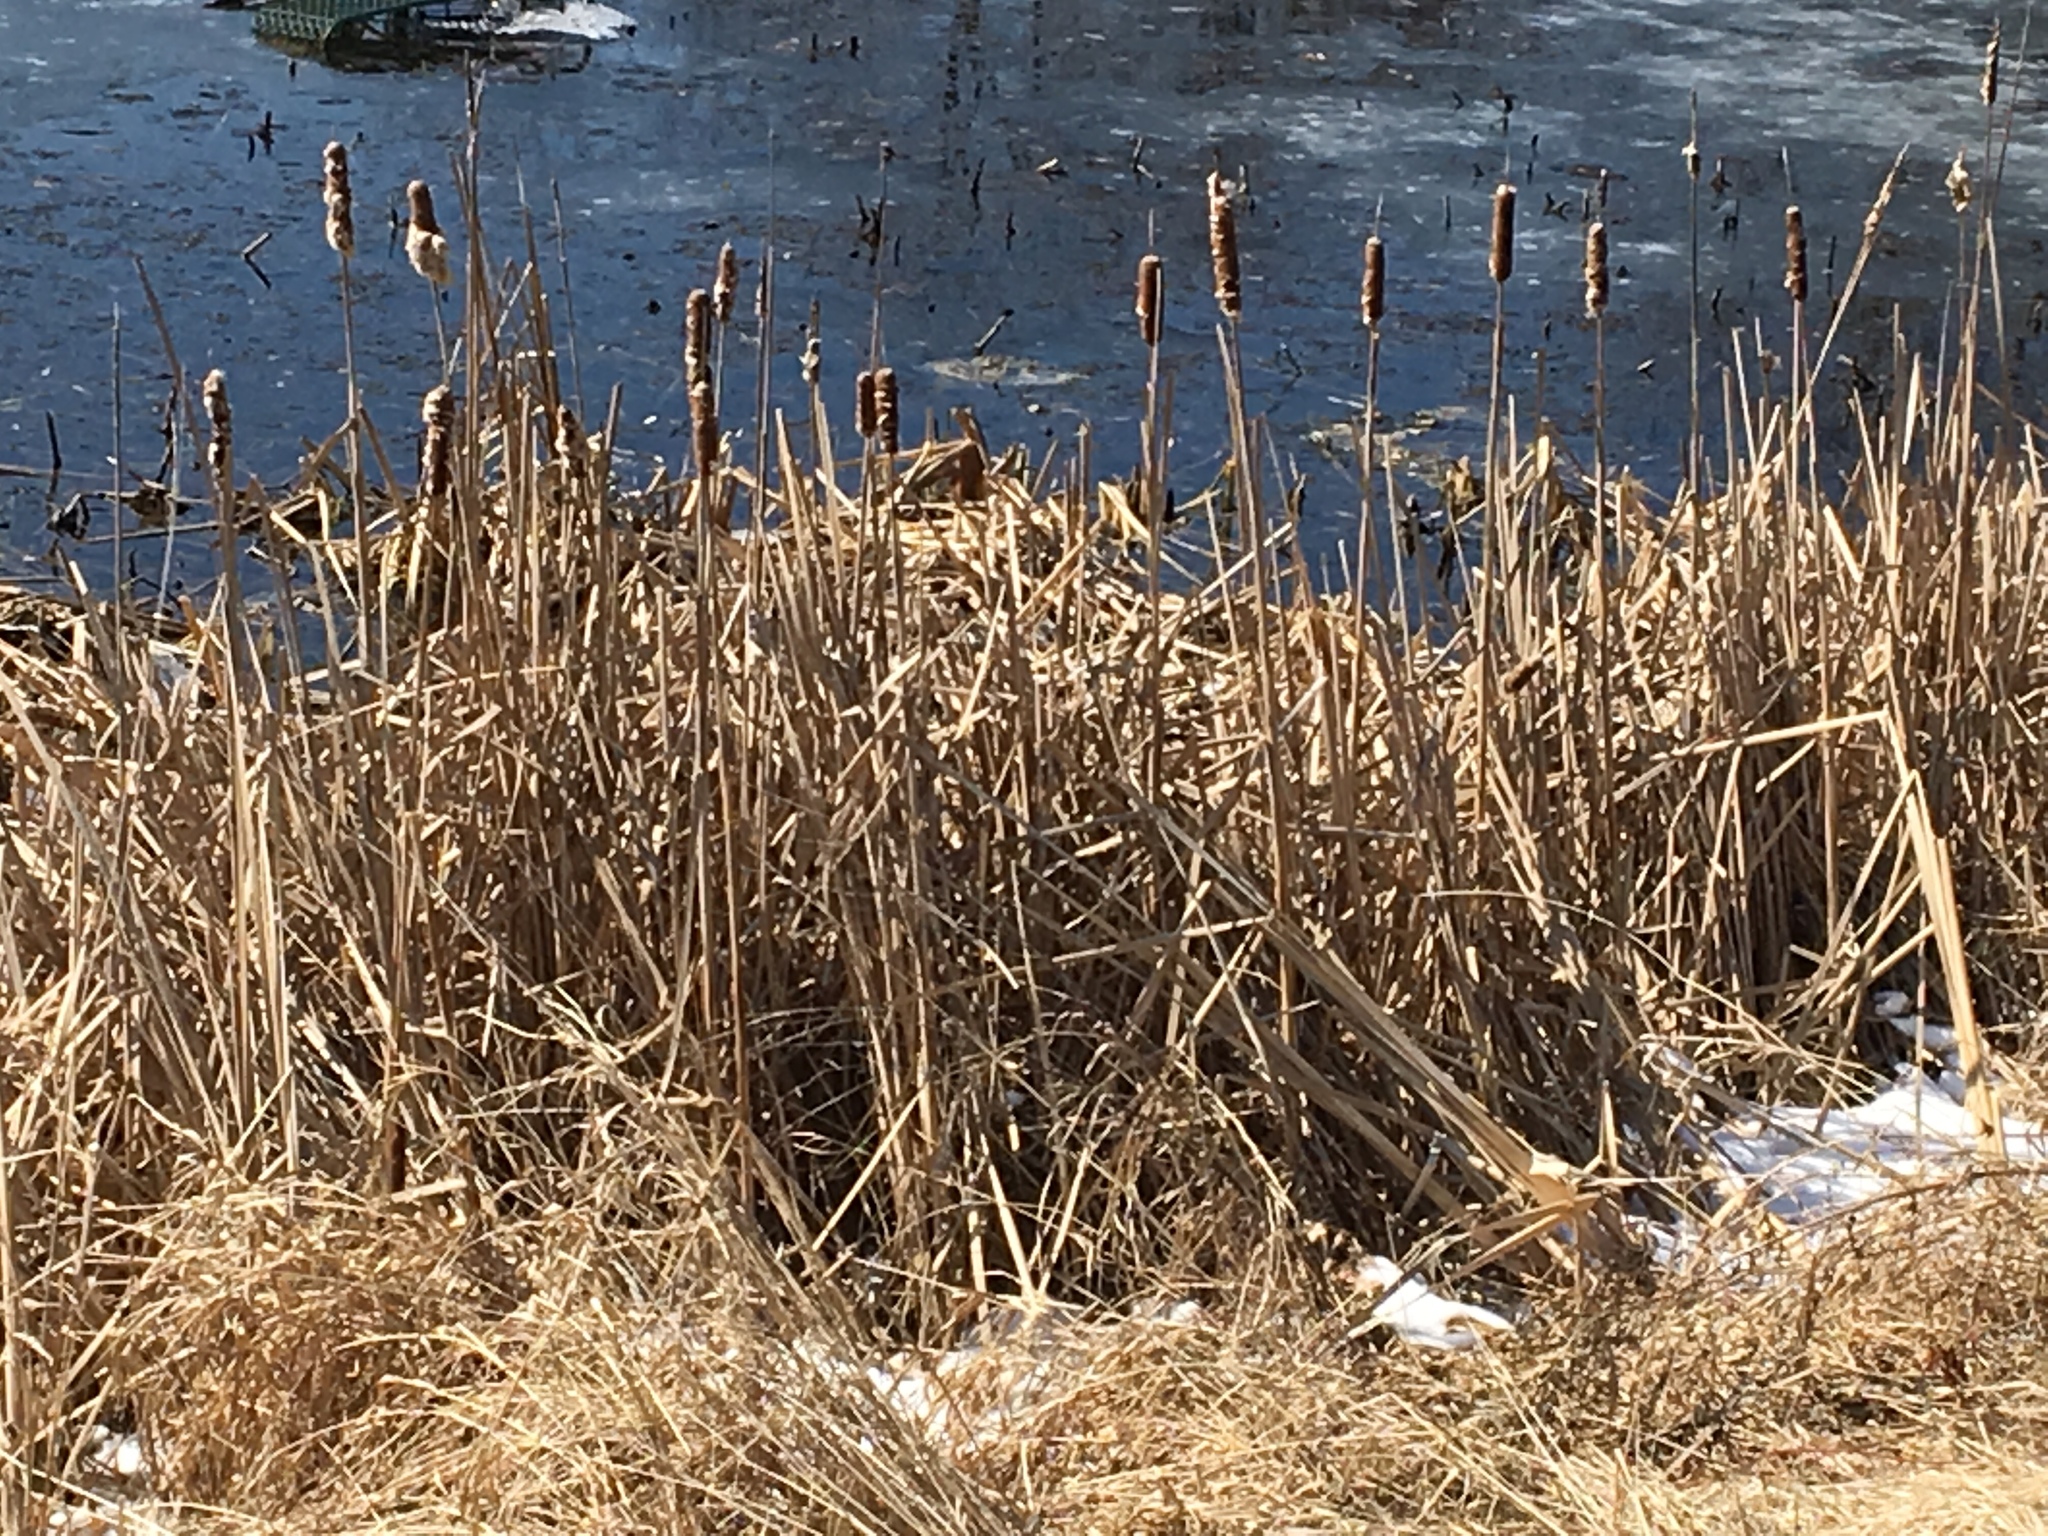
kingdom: Plantae
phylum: Tracheophyta
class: Liliopsida
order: Poales
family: Typhaceae
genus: Typha
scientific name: Typha latifolia
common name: Broadleaf cattail
